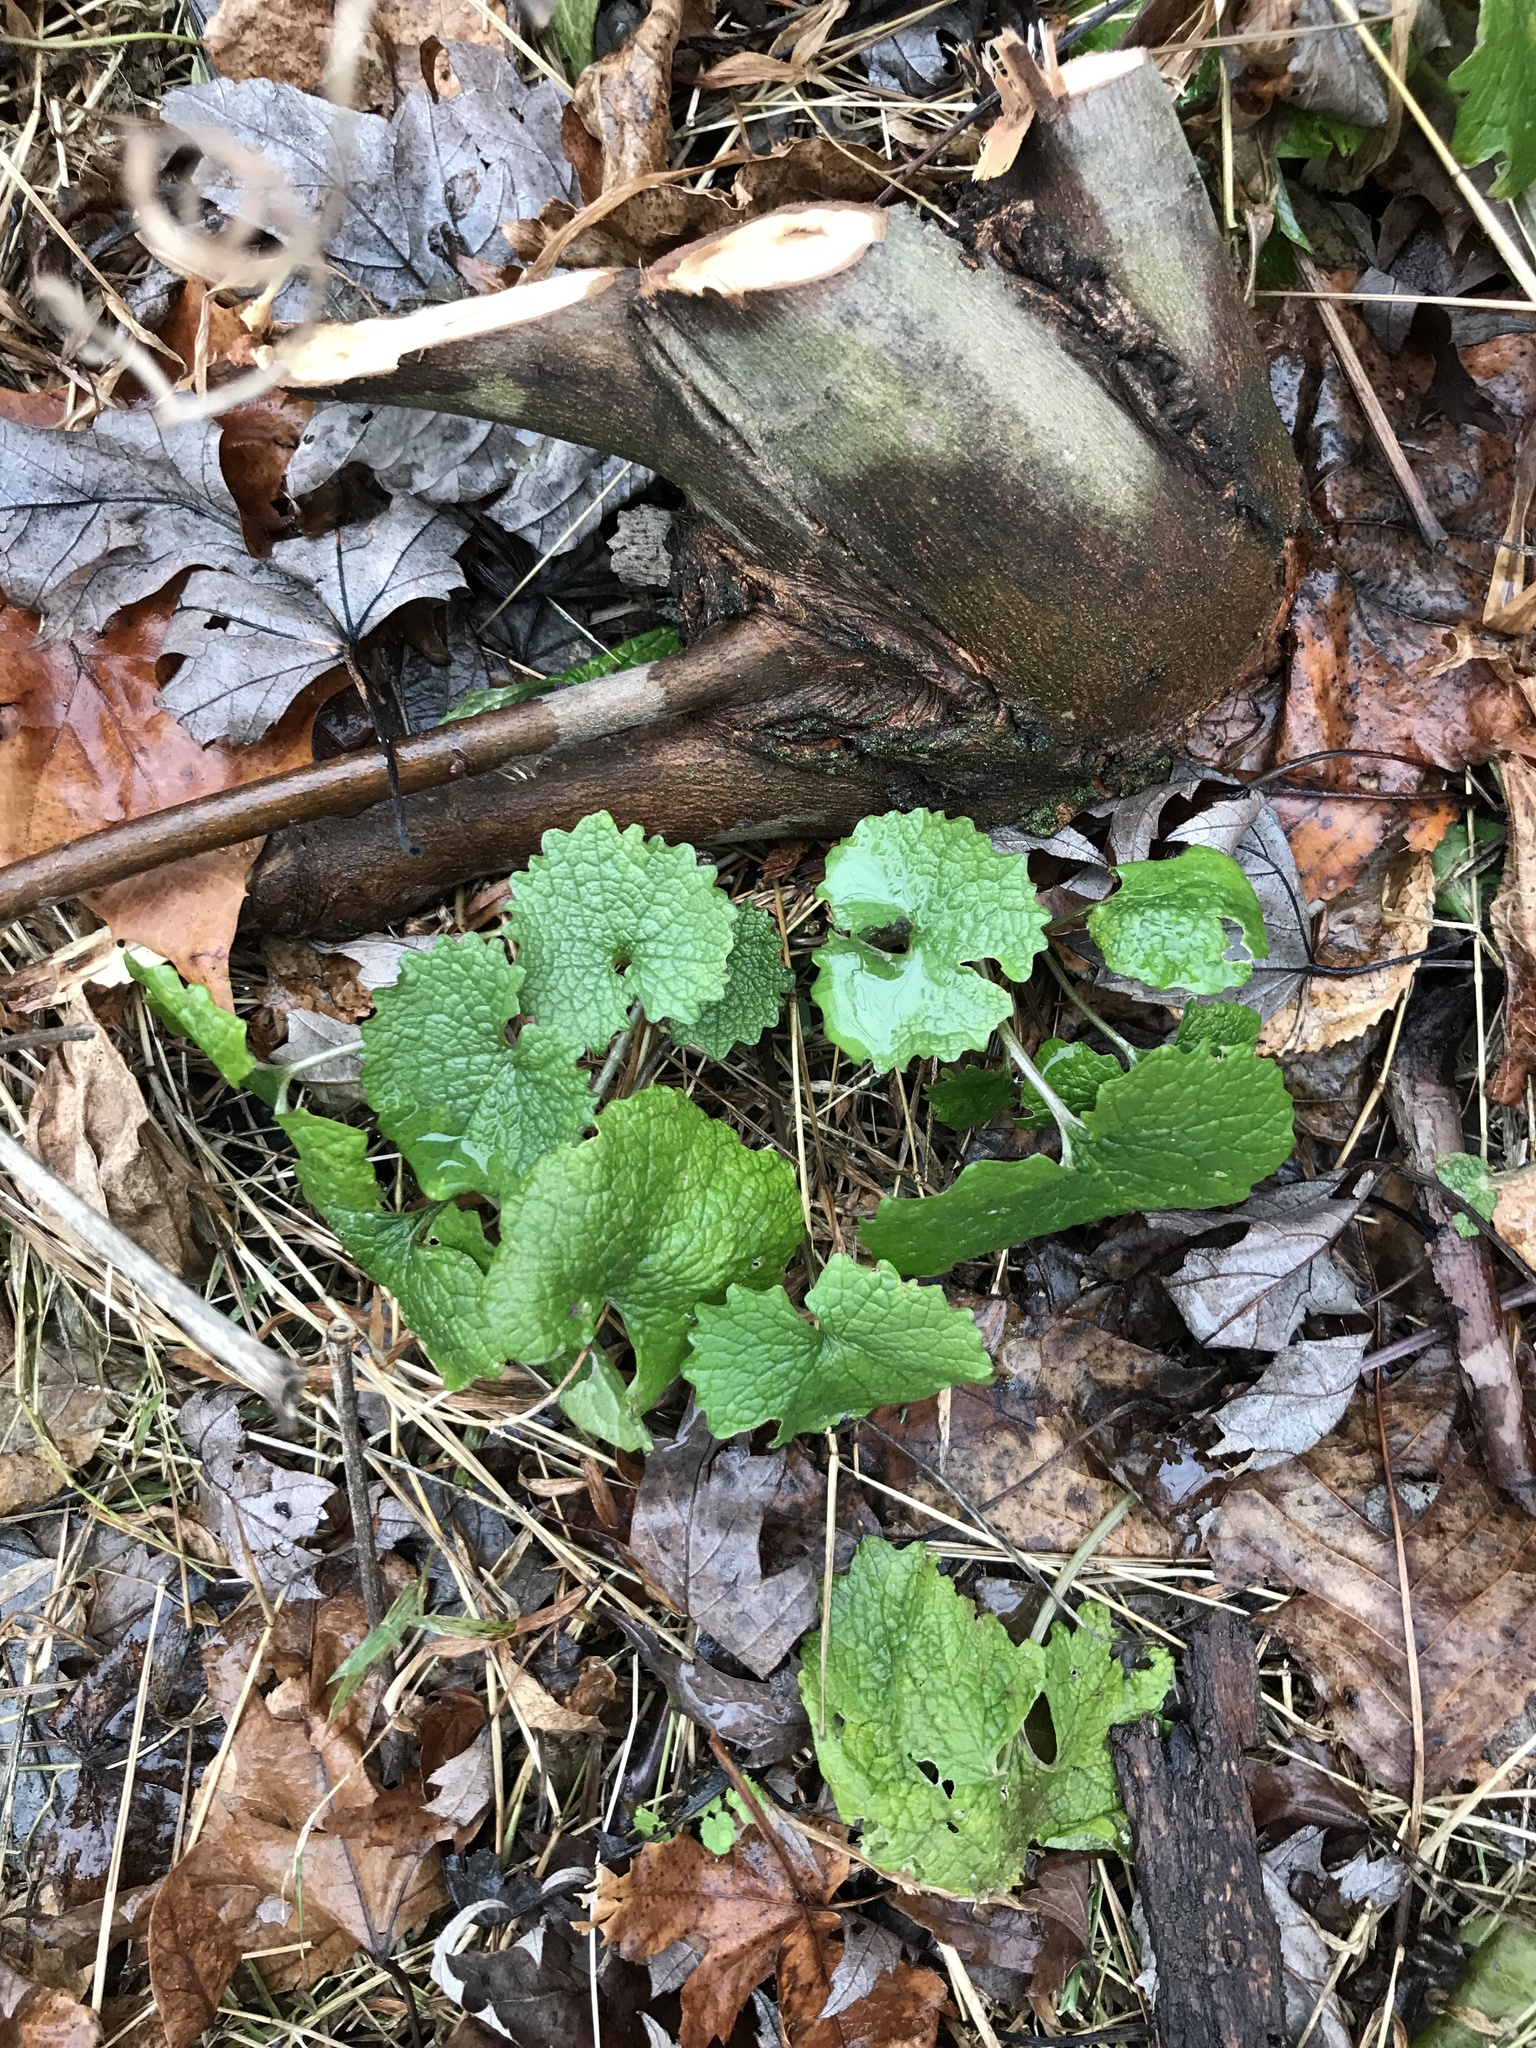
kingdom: Plantae
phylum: Tracheophyta
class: Magnoliopsida
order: Brassicales
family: Brassicaceae
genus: Alliaria
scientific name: Alliaria petiolata
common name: Garlic mustard
